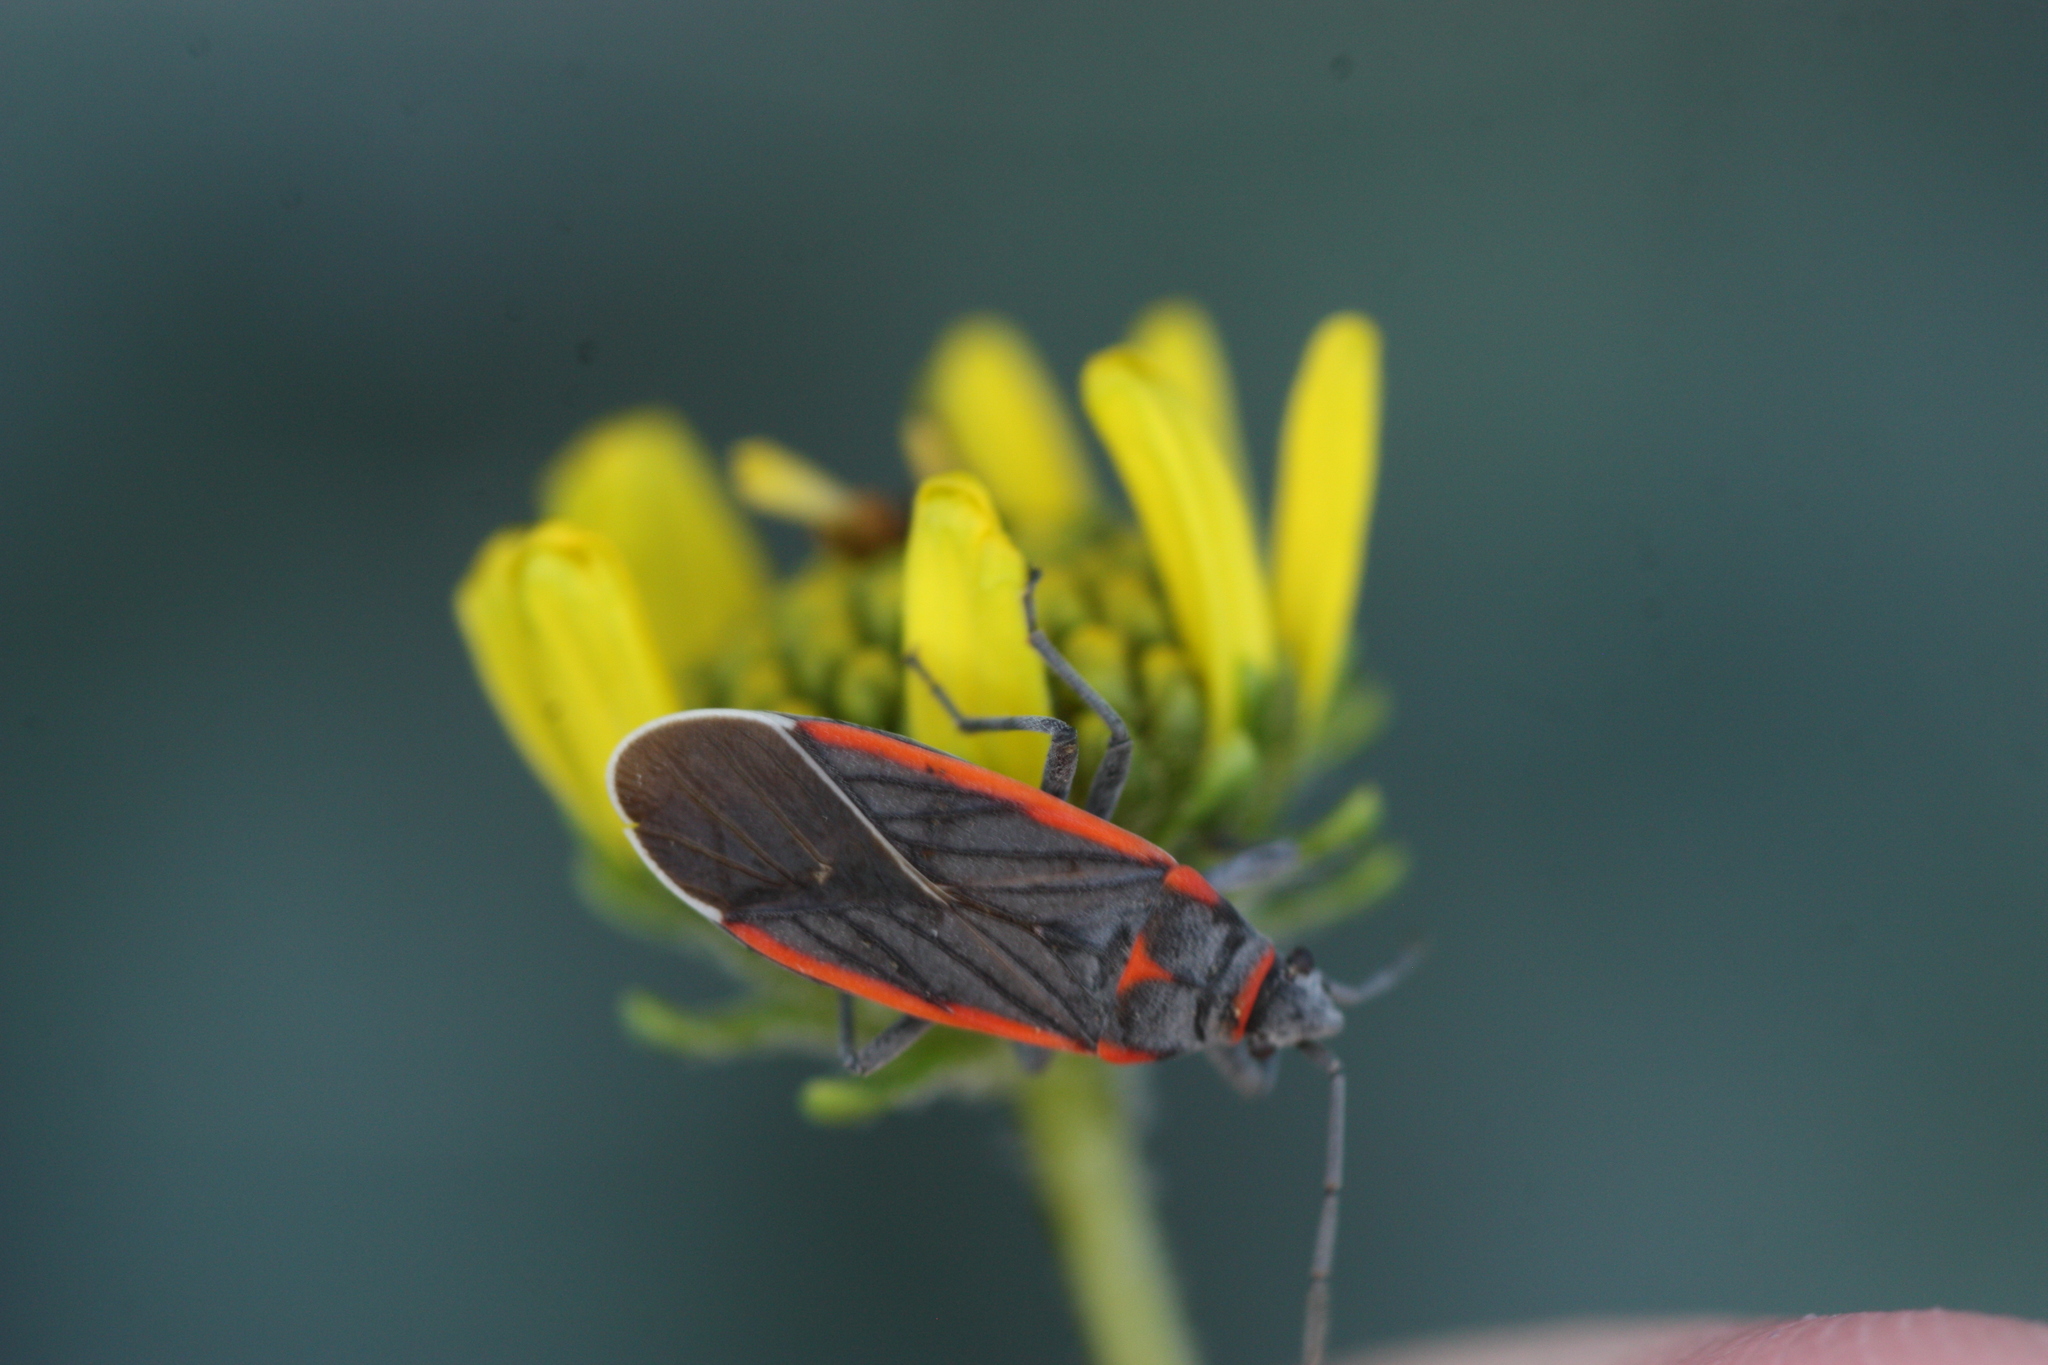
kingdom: Animalia
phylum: Arthropoda
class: Insecta
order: Hemiptera
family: Lygaeidae
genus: Melacoryphus
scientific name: Melacoryphus lateralis
